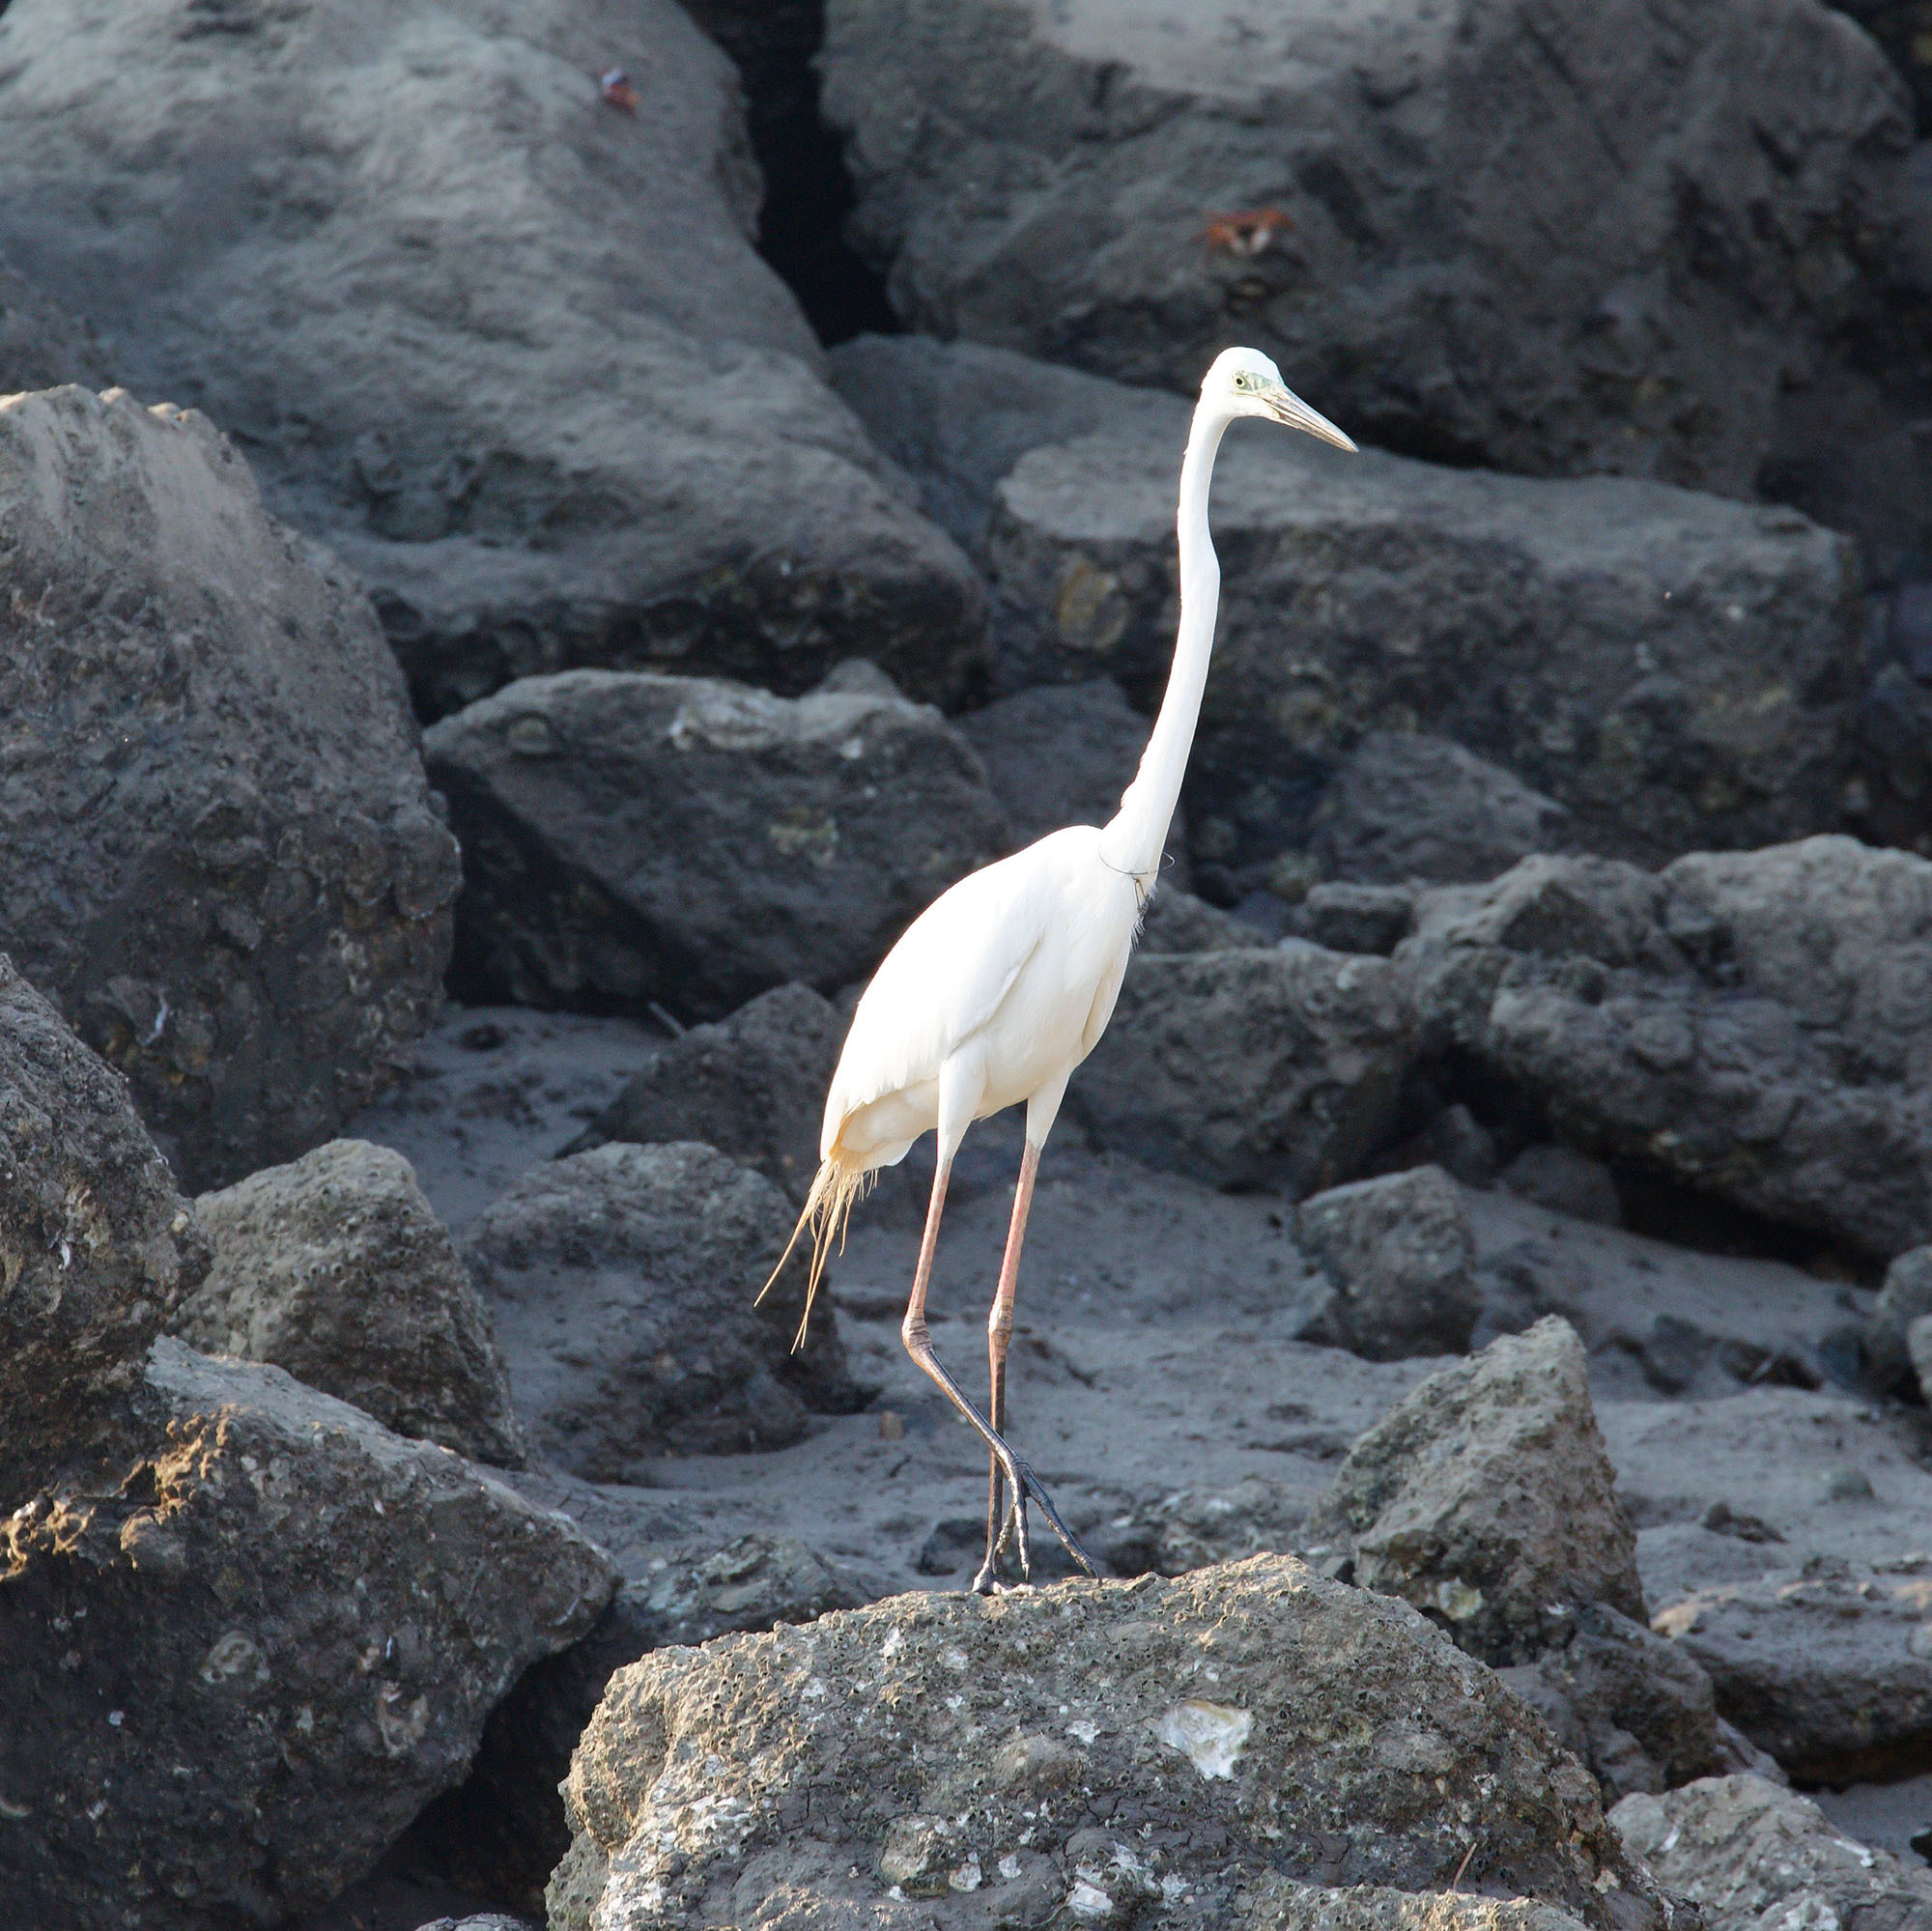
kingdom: Animalia
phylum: Chordata
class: Aves
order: Pelecaniformes
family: Ardeidae
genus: Ardea
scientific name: Ardea modesta
